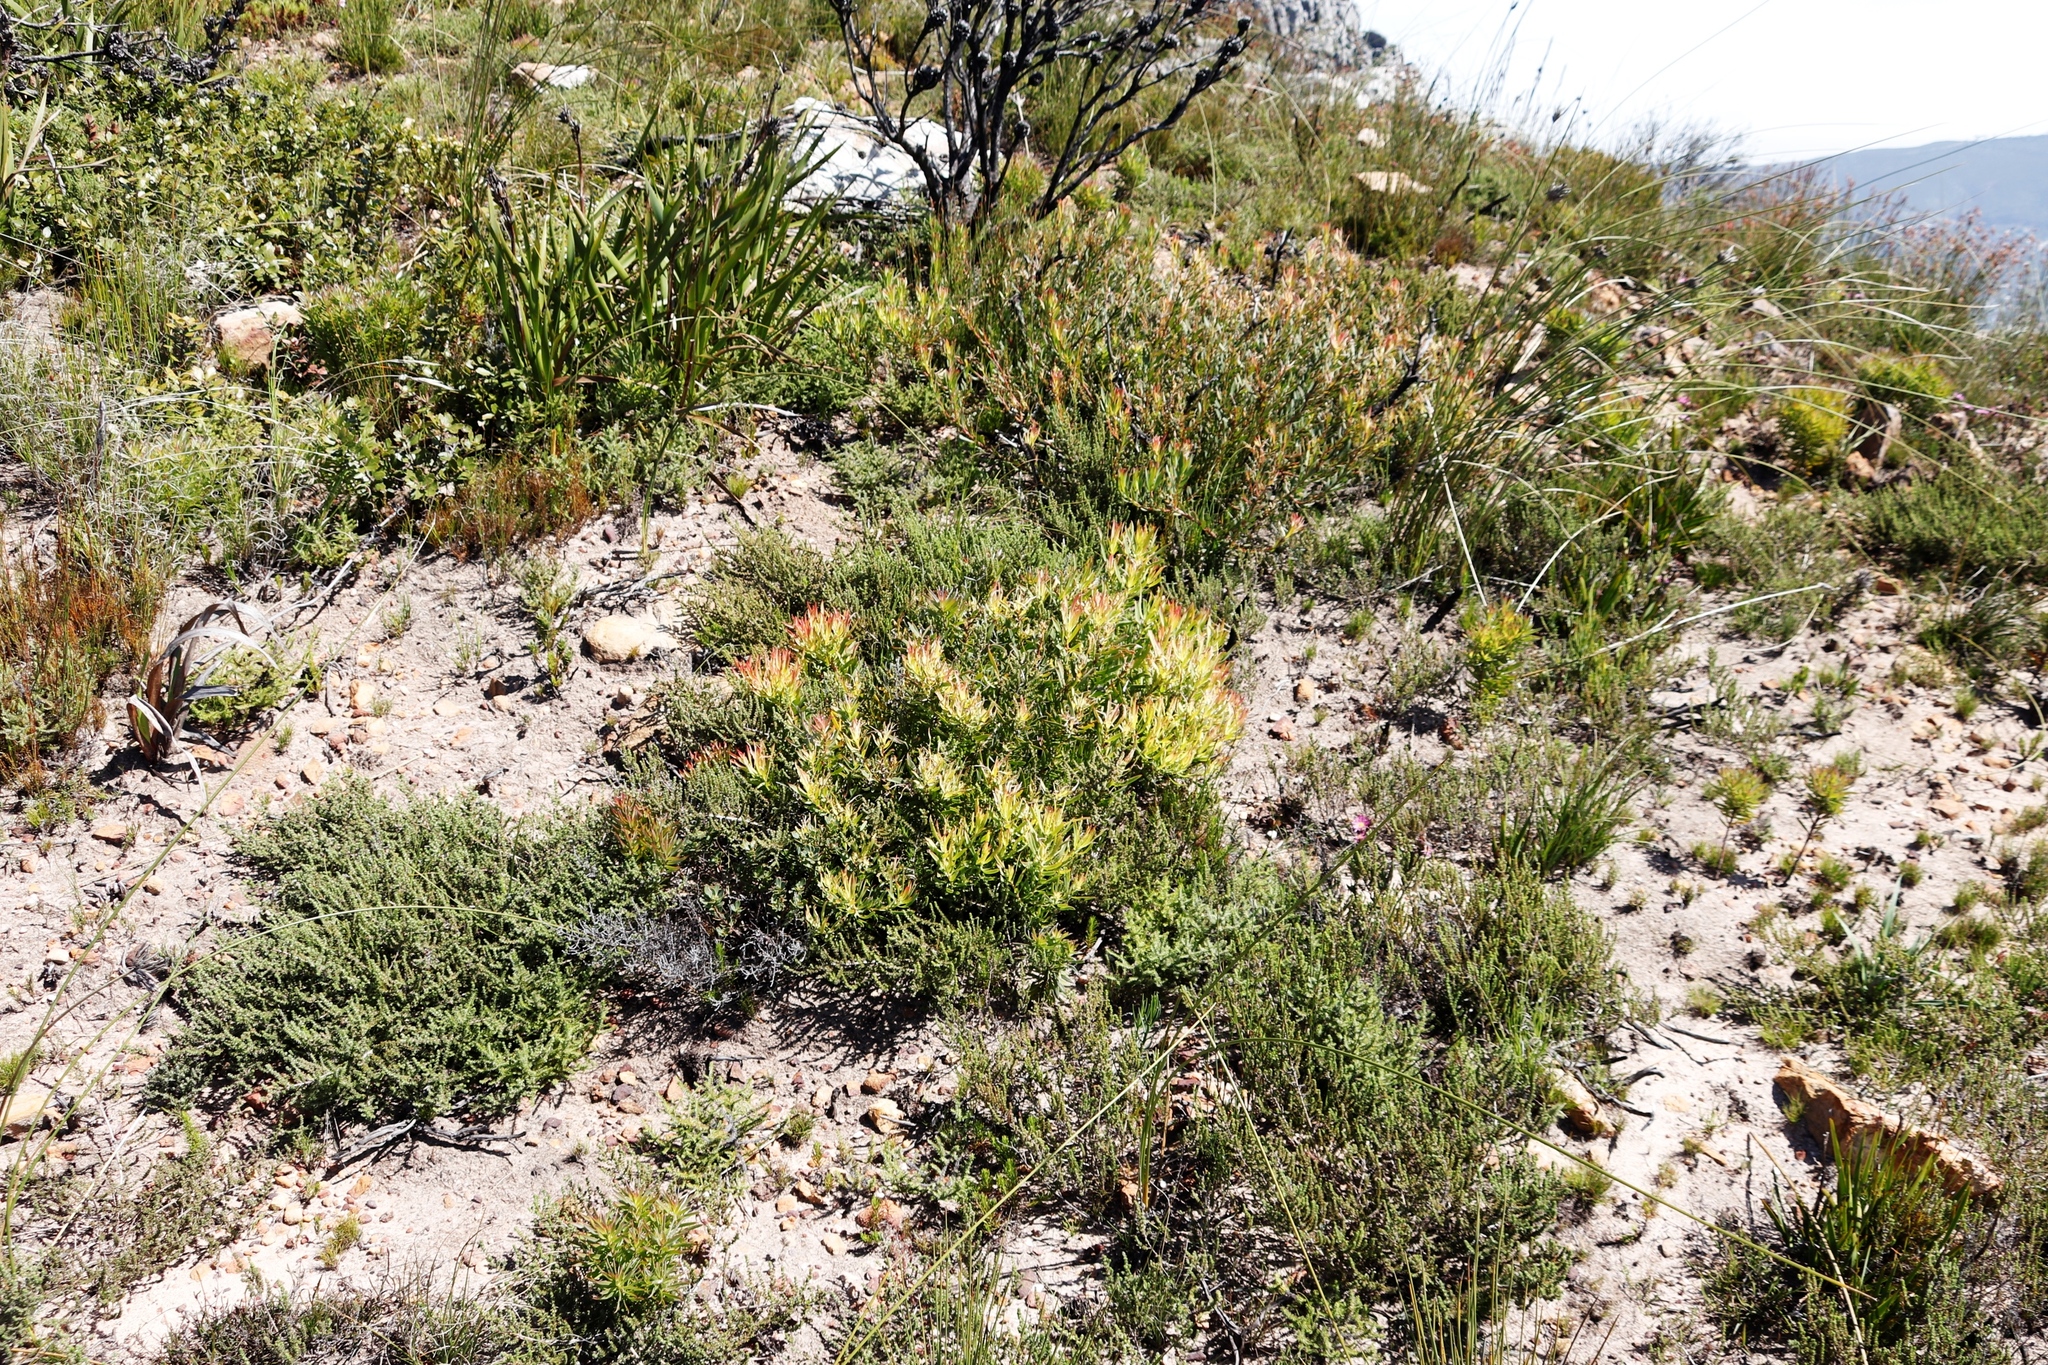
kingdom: Plantae
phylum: Tracheophyta
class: Magnoliopsida
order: Proteales
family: Proteaceae
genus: Leucadendron
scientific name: Leucadendron salignum
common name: Common sunshine conebush
